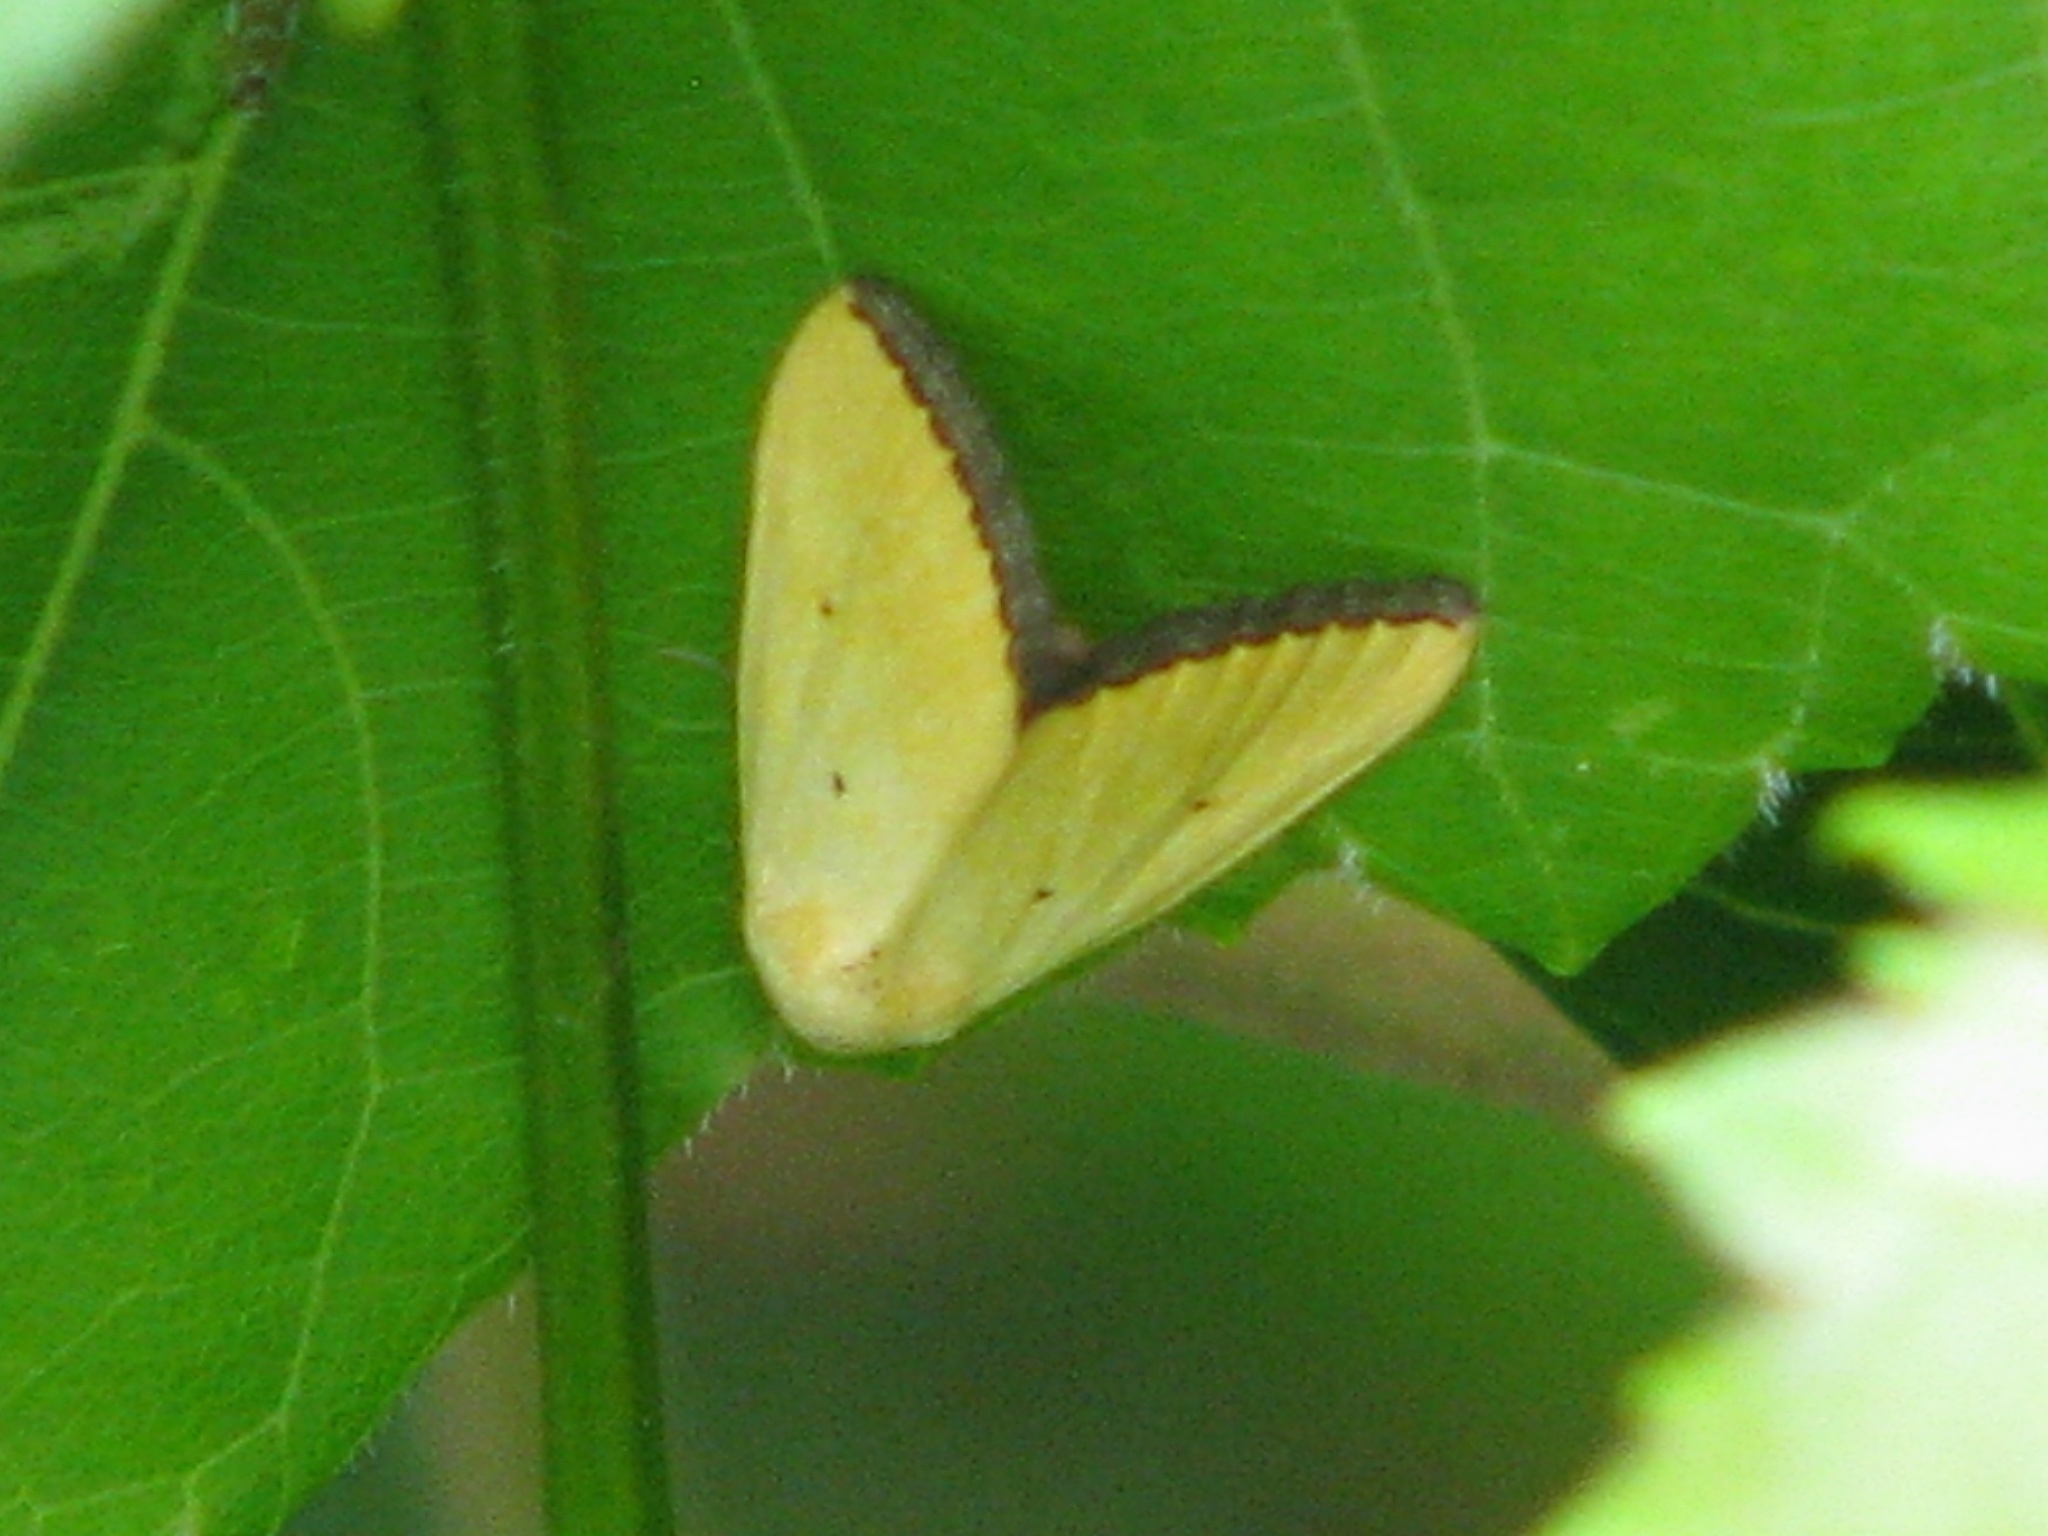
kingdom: Animalia
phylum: Arthropoda
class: Insecta
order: Lepidoptera
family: Noctuidae
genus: Marimatha
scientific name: Marimatha nigrofimbria
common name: Black-bordered lemon moth
